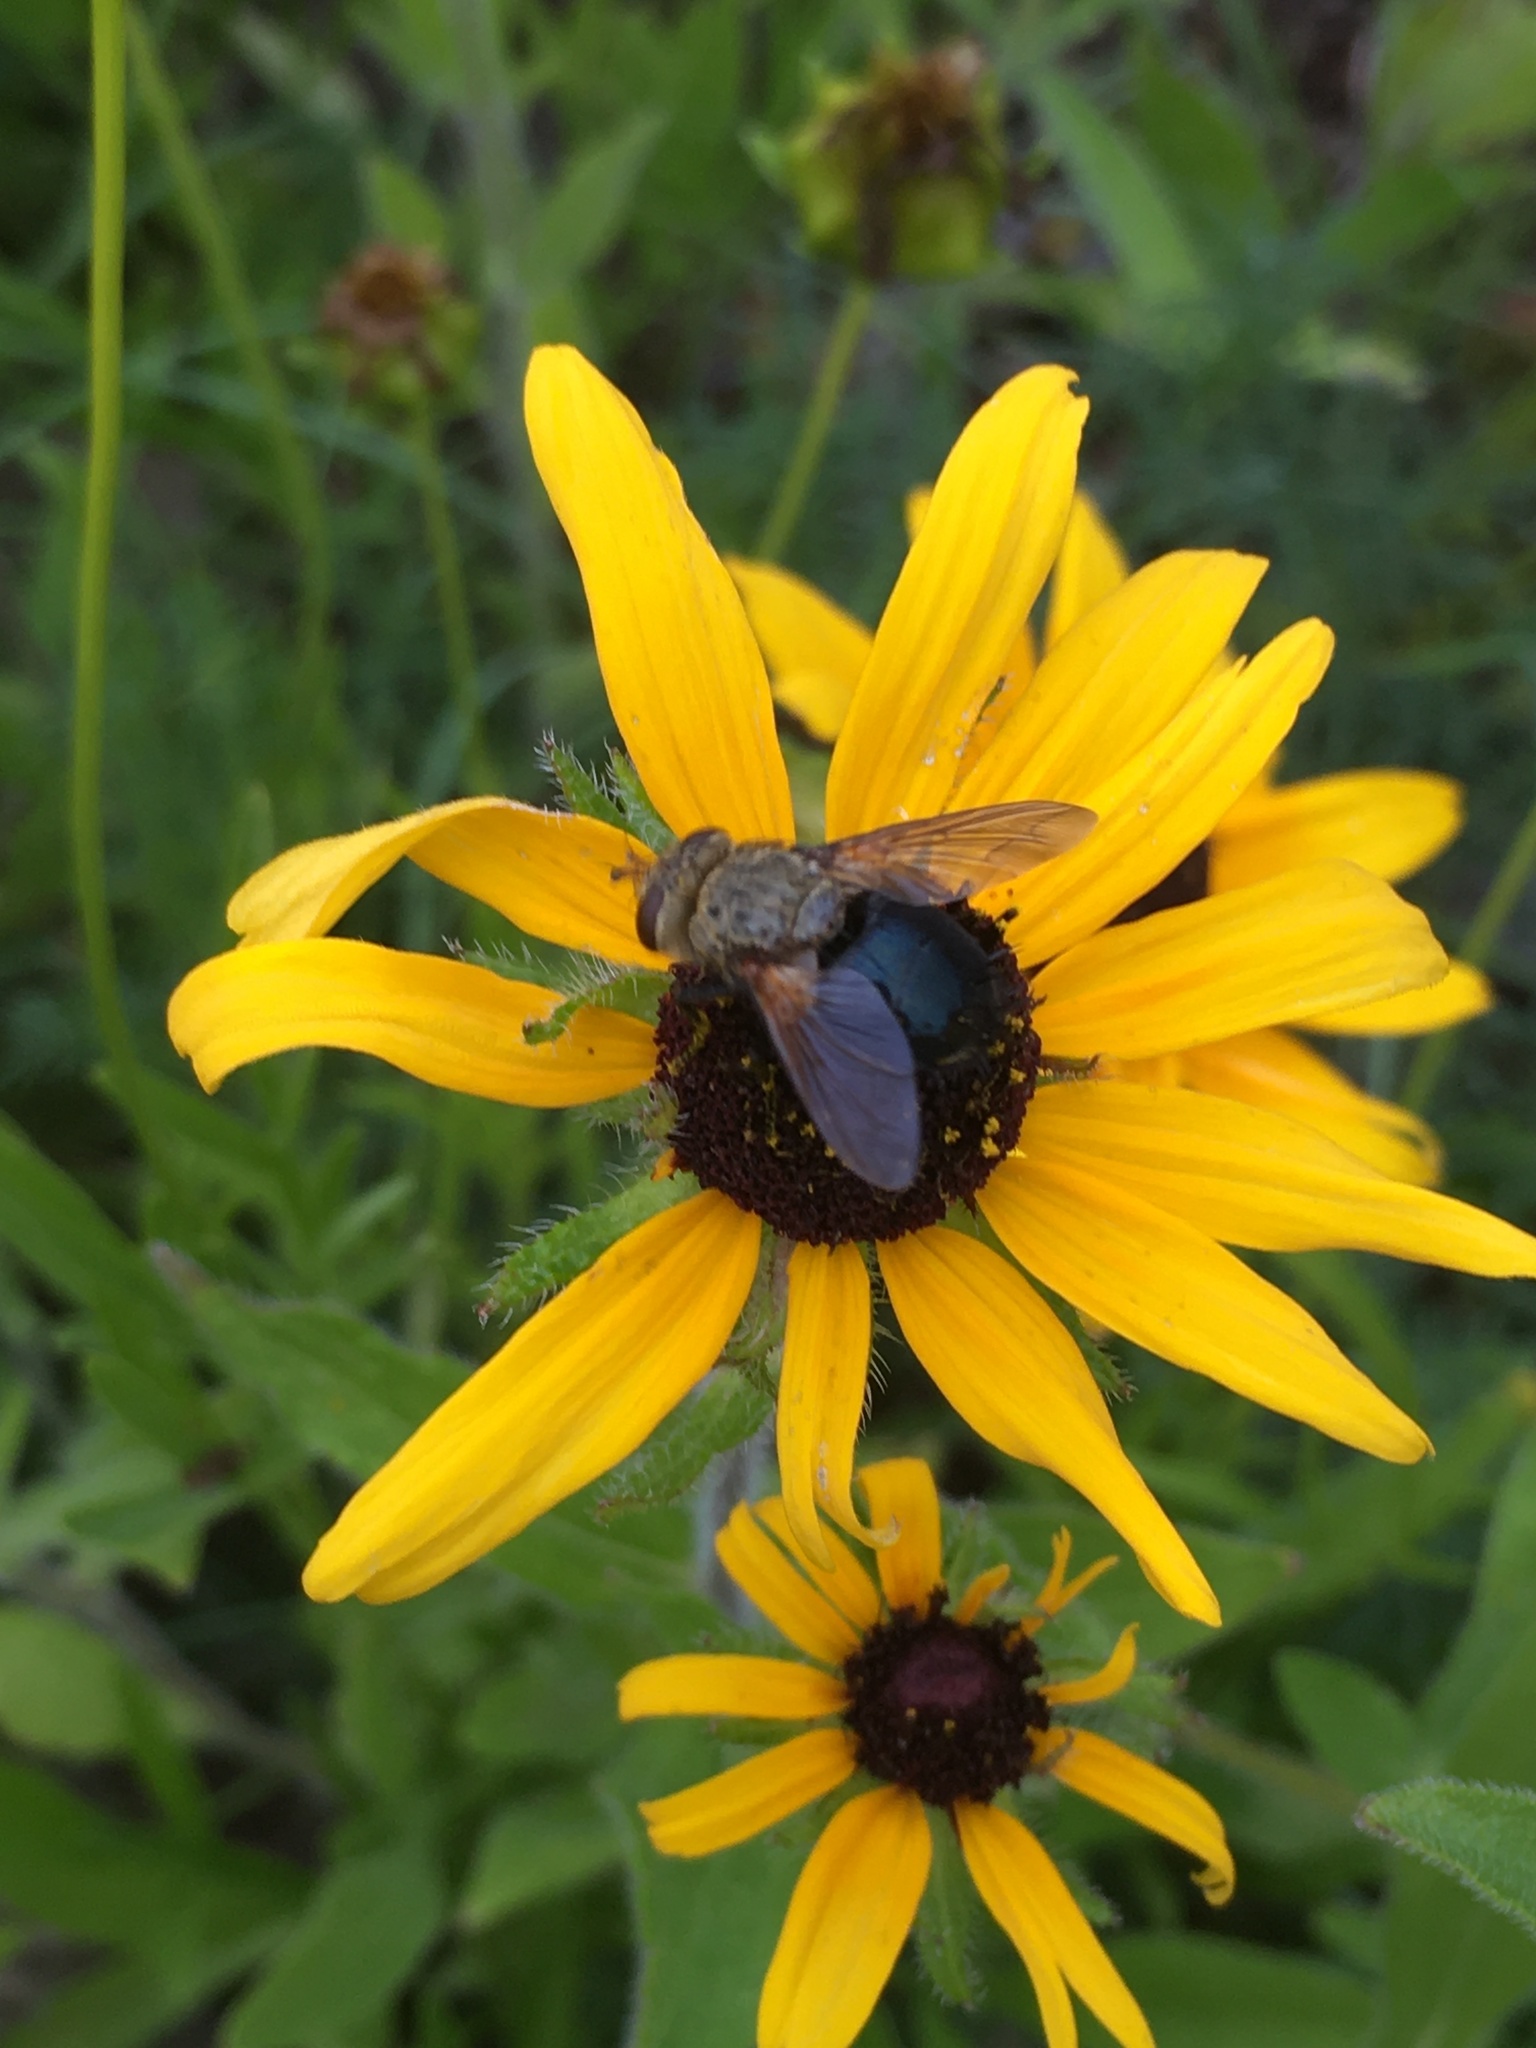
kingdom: Animalia
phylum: Arthropoda
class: Insecta
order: Diptera
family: Tachinidae
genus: Archytas
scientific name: Archytas
